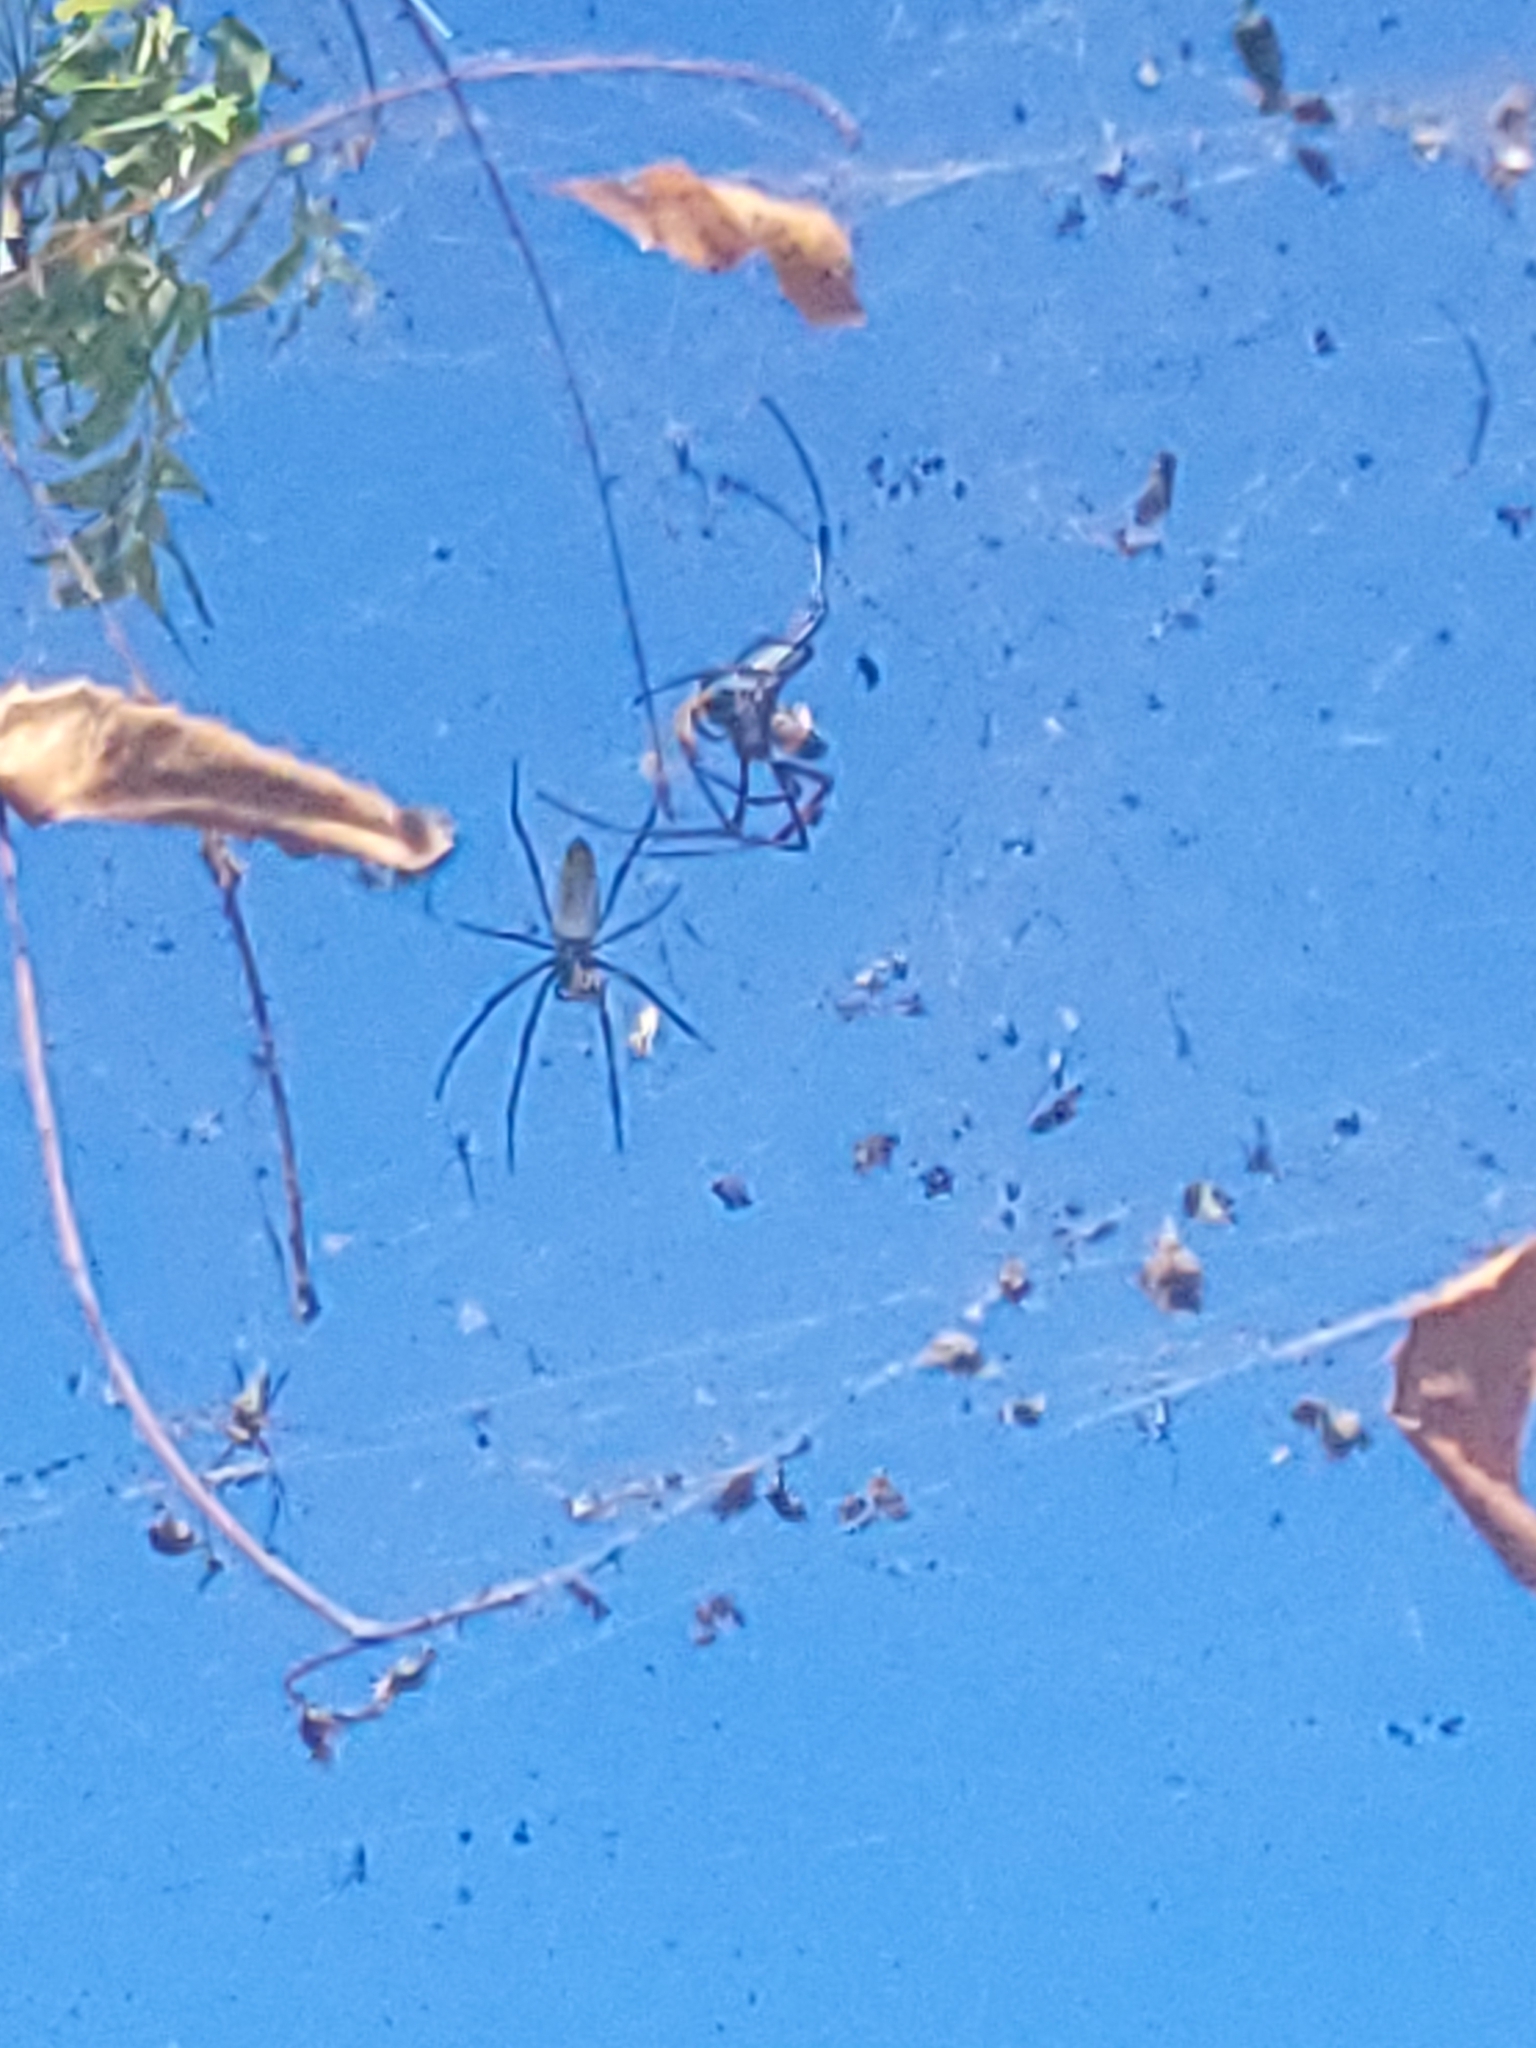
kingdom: Animalia
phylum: Arthropoda
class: Arachnida
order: Araneae
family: Araneidae
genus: Trichonephila
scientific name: Trichonephila inaurata
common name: Red-legged golden orb weaver
